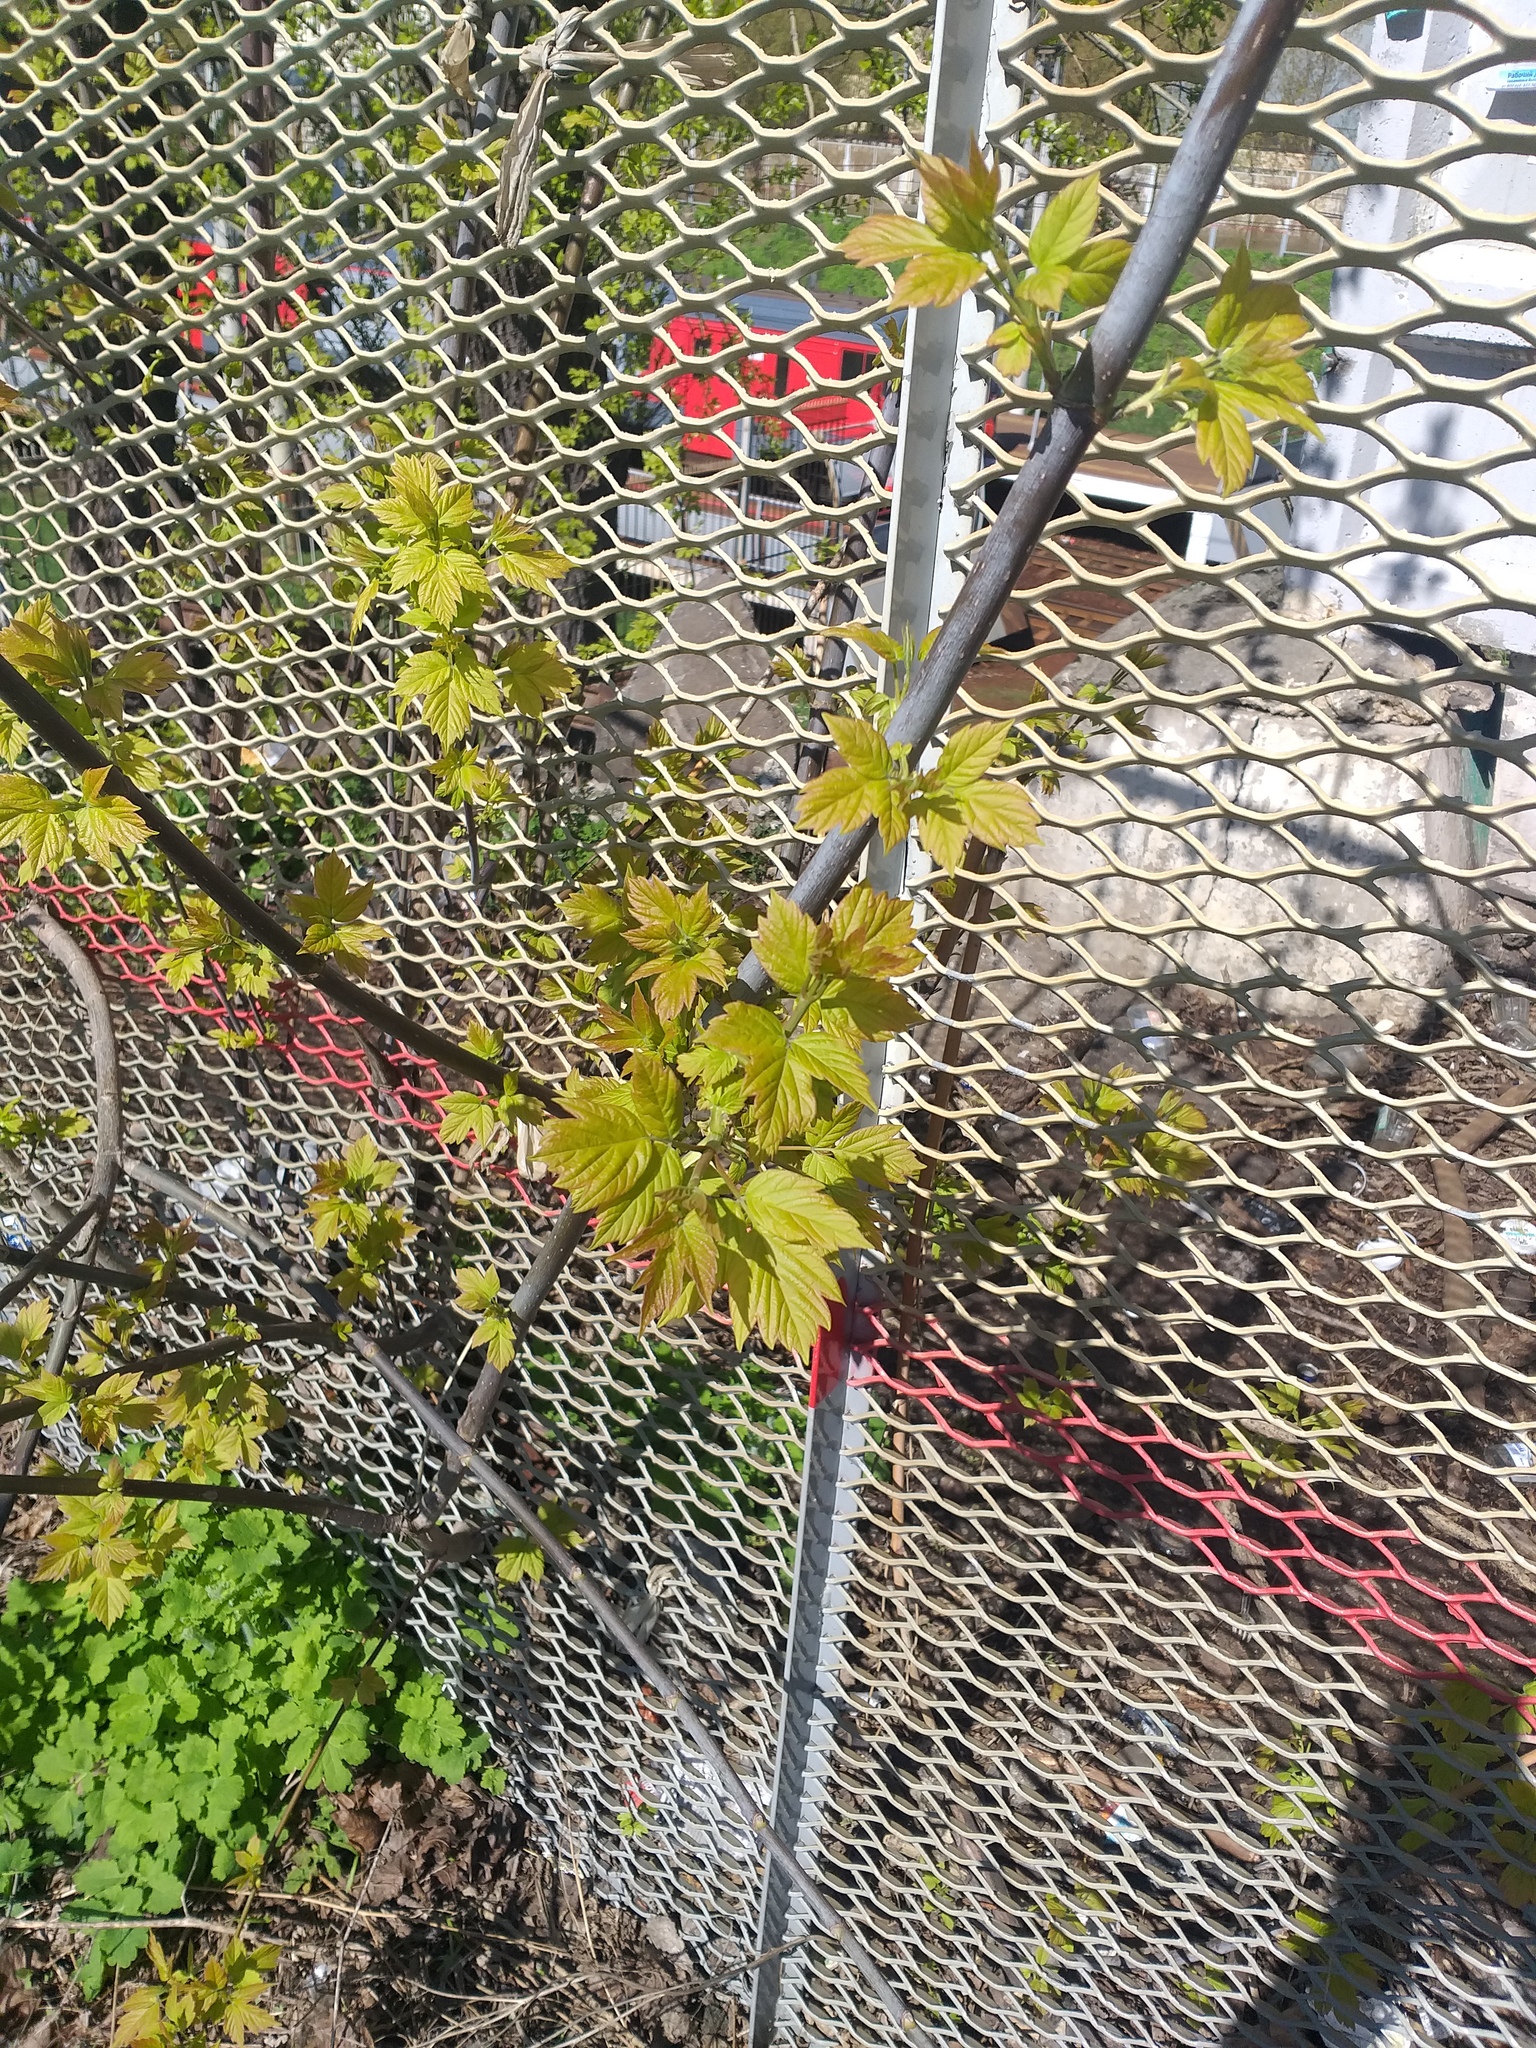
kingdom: Plantae
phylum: Tracheophyta
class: Magnoliopsida
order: Sapindales
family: Sapindaceae
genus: Acer
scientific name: Acer negundo
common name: Ashleaf maple
